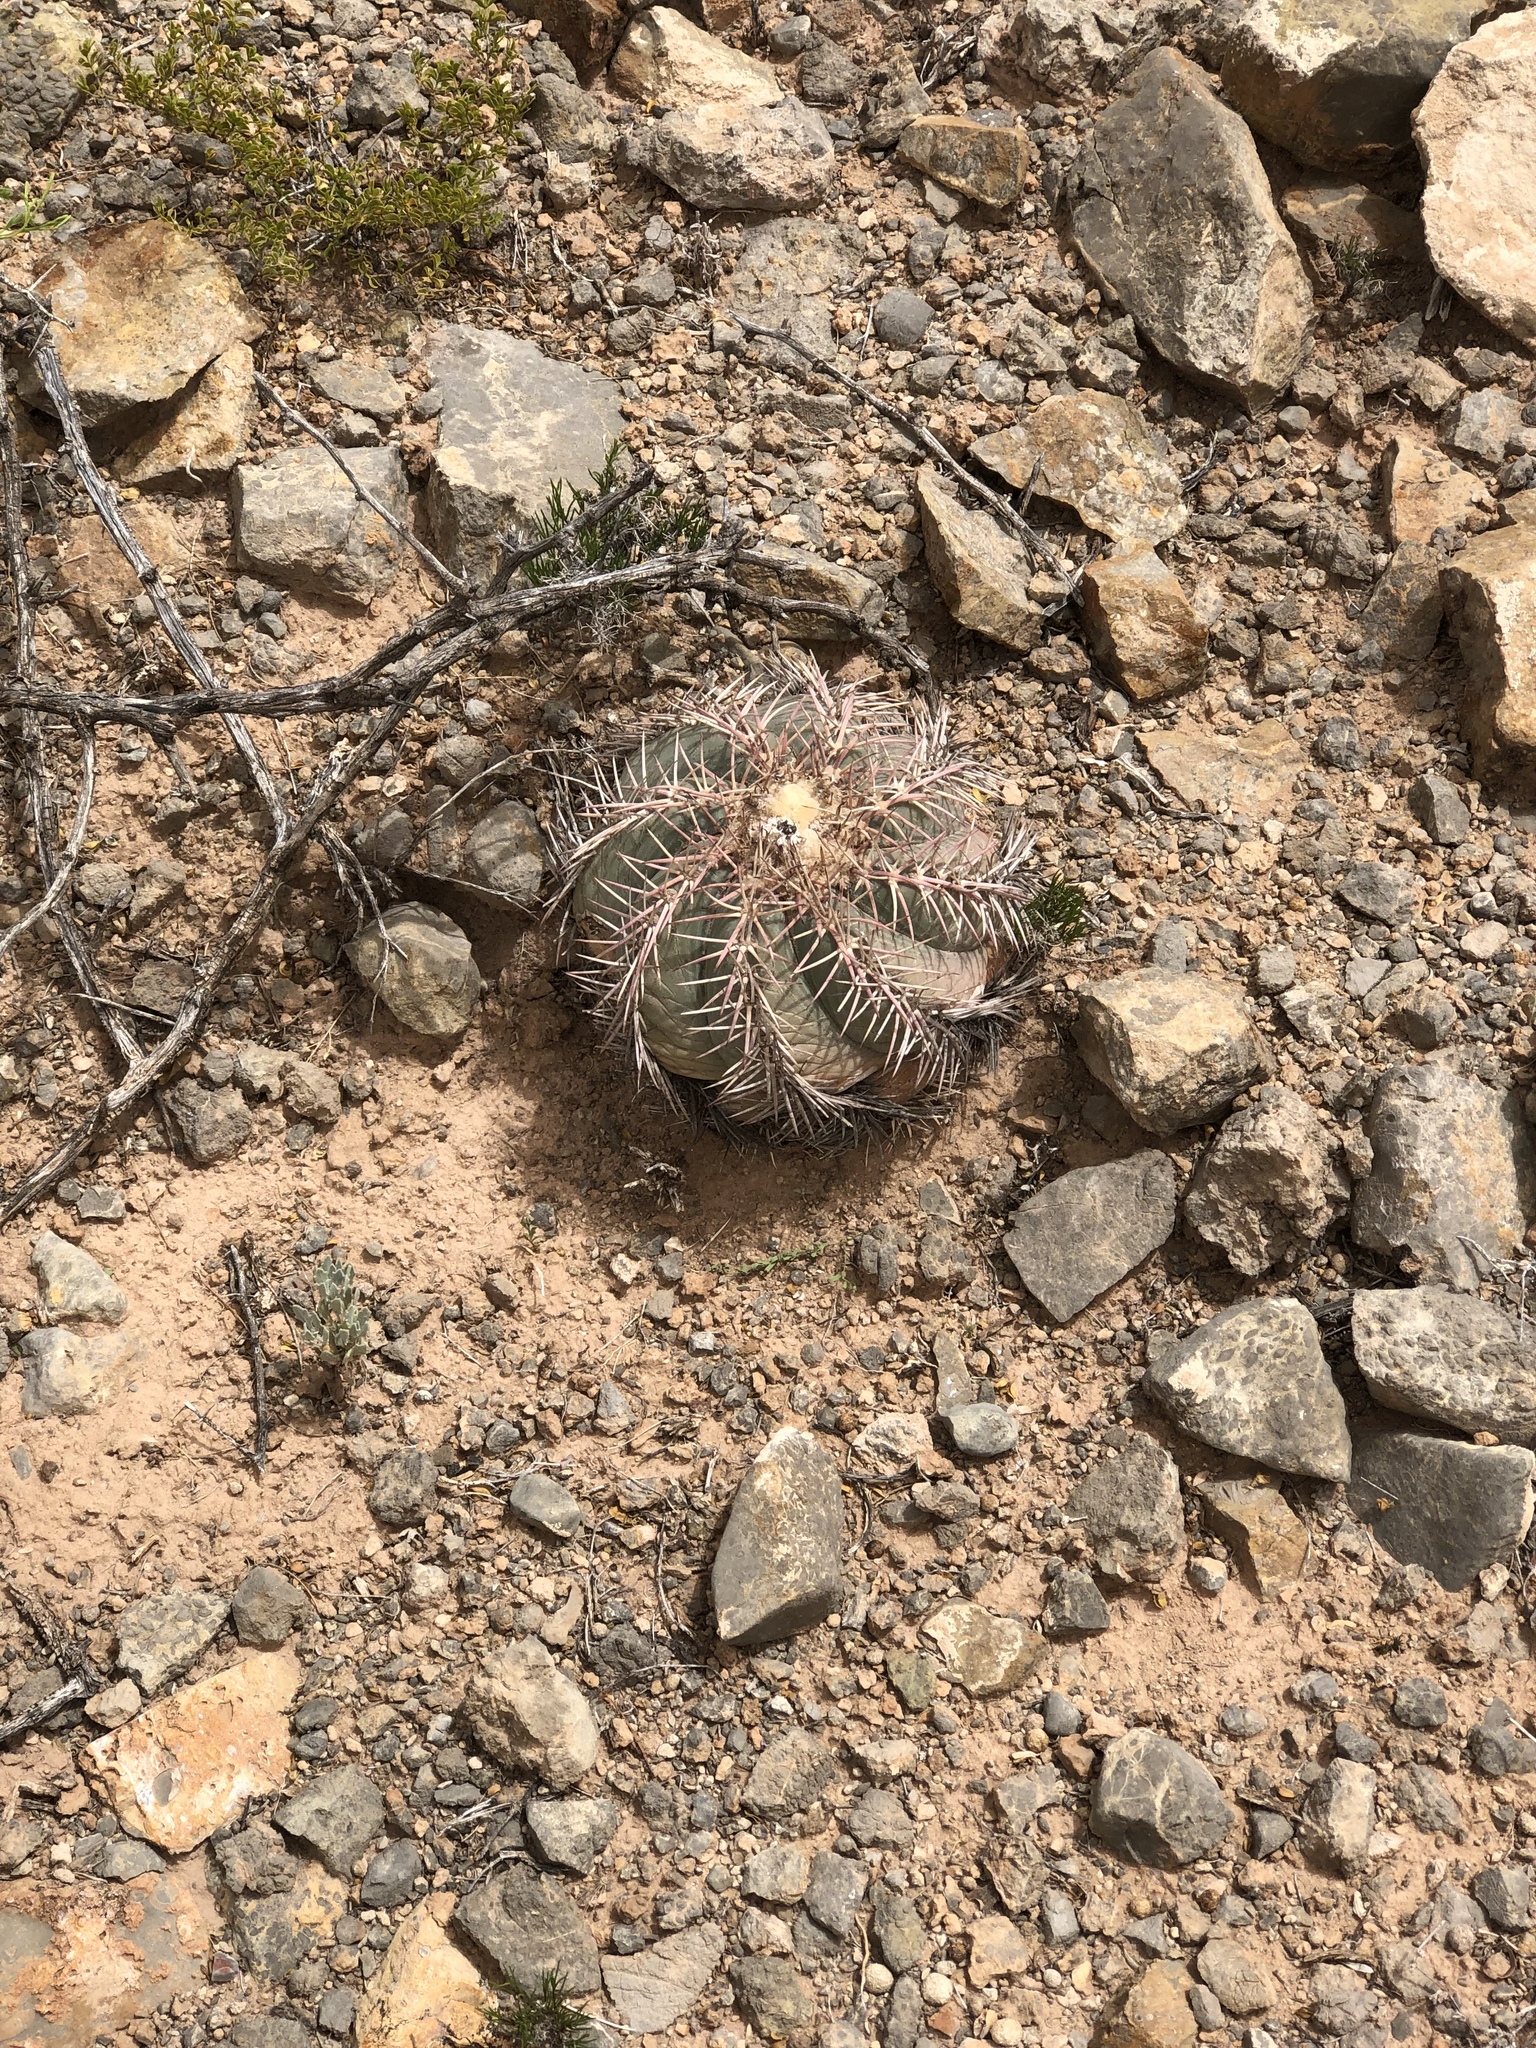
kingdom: Plantae
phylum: Tracheophyta
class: Magnoliopsida
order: Caryophyllales
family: Cactaceae
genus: Echinocactus
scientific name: Echinocactus horizonthalonius
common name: Devilshead
